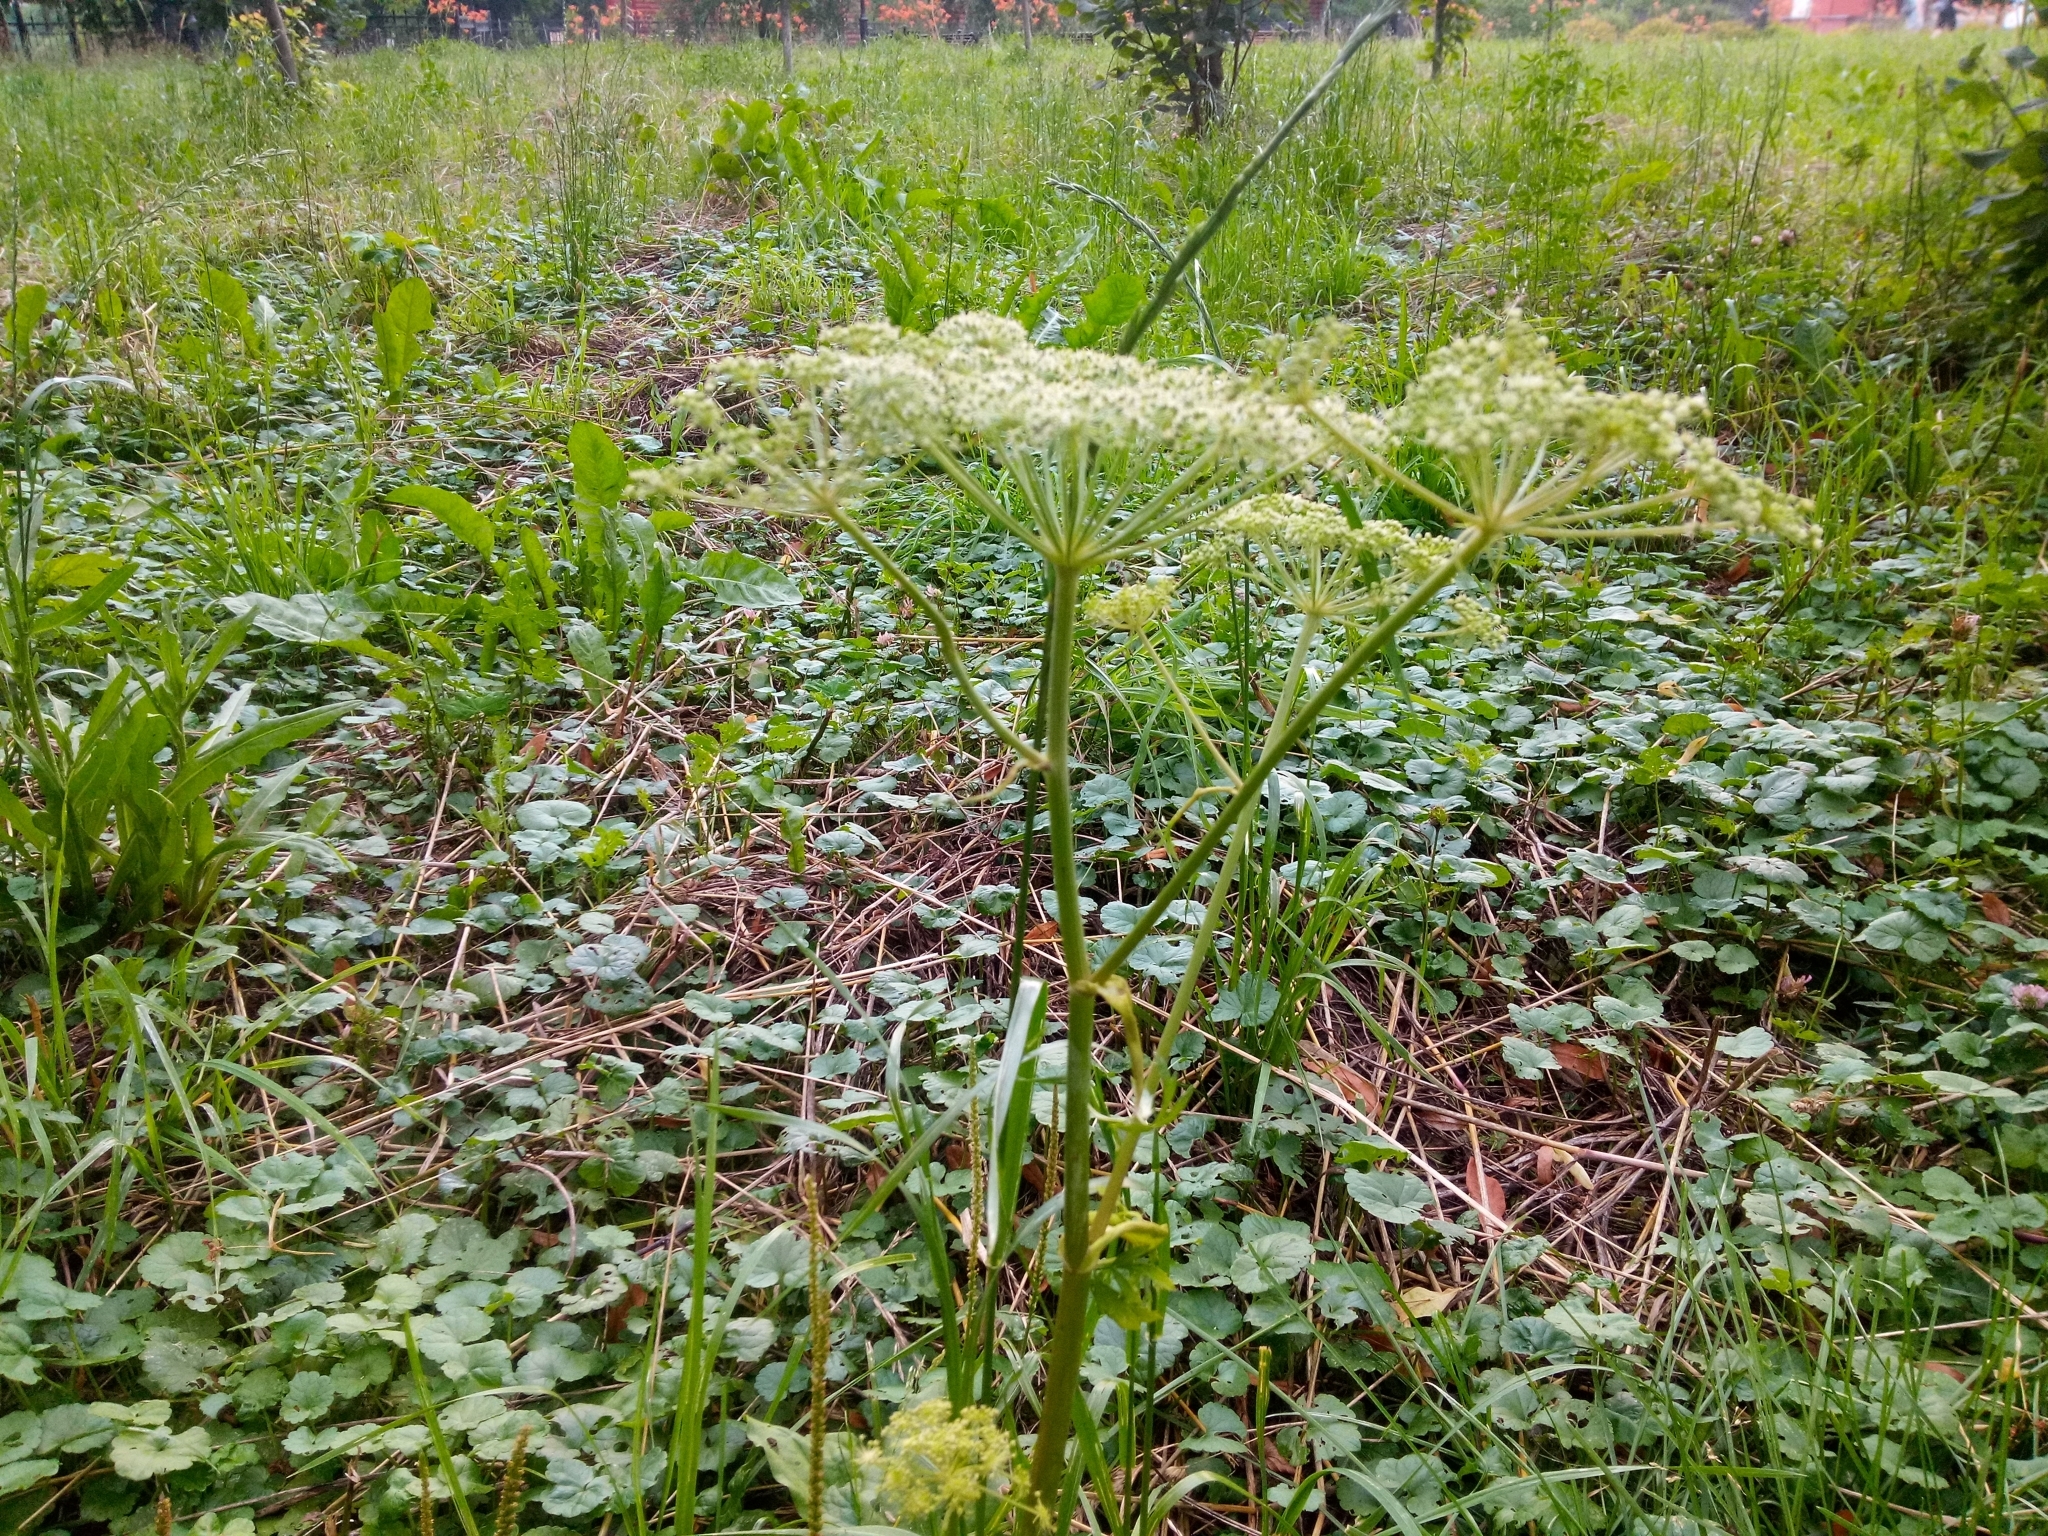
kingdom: Plantae
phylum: Tracheophyta
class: Magnoliopsida
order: Apiales
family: Apiaceae
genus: Angelica
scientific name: Angelica sylvestris
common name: Wild angelica
